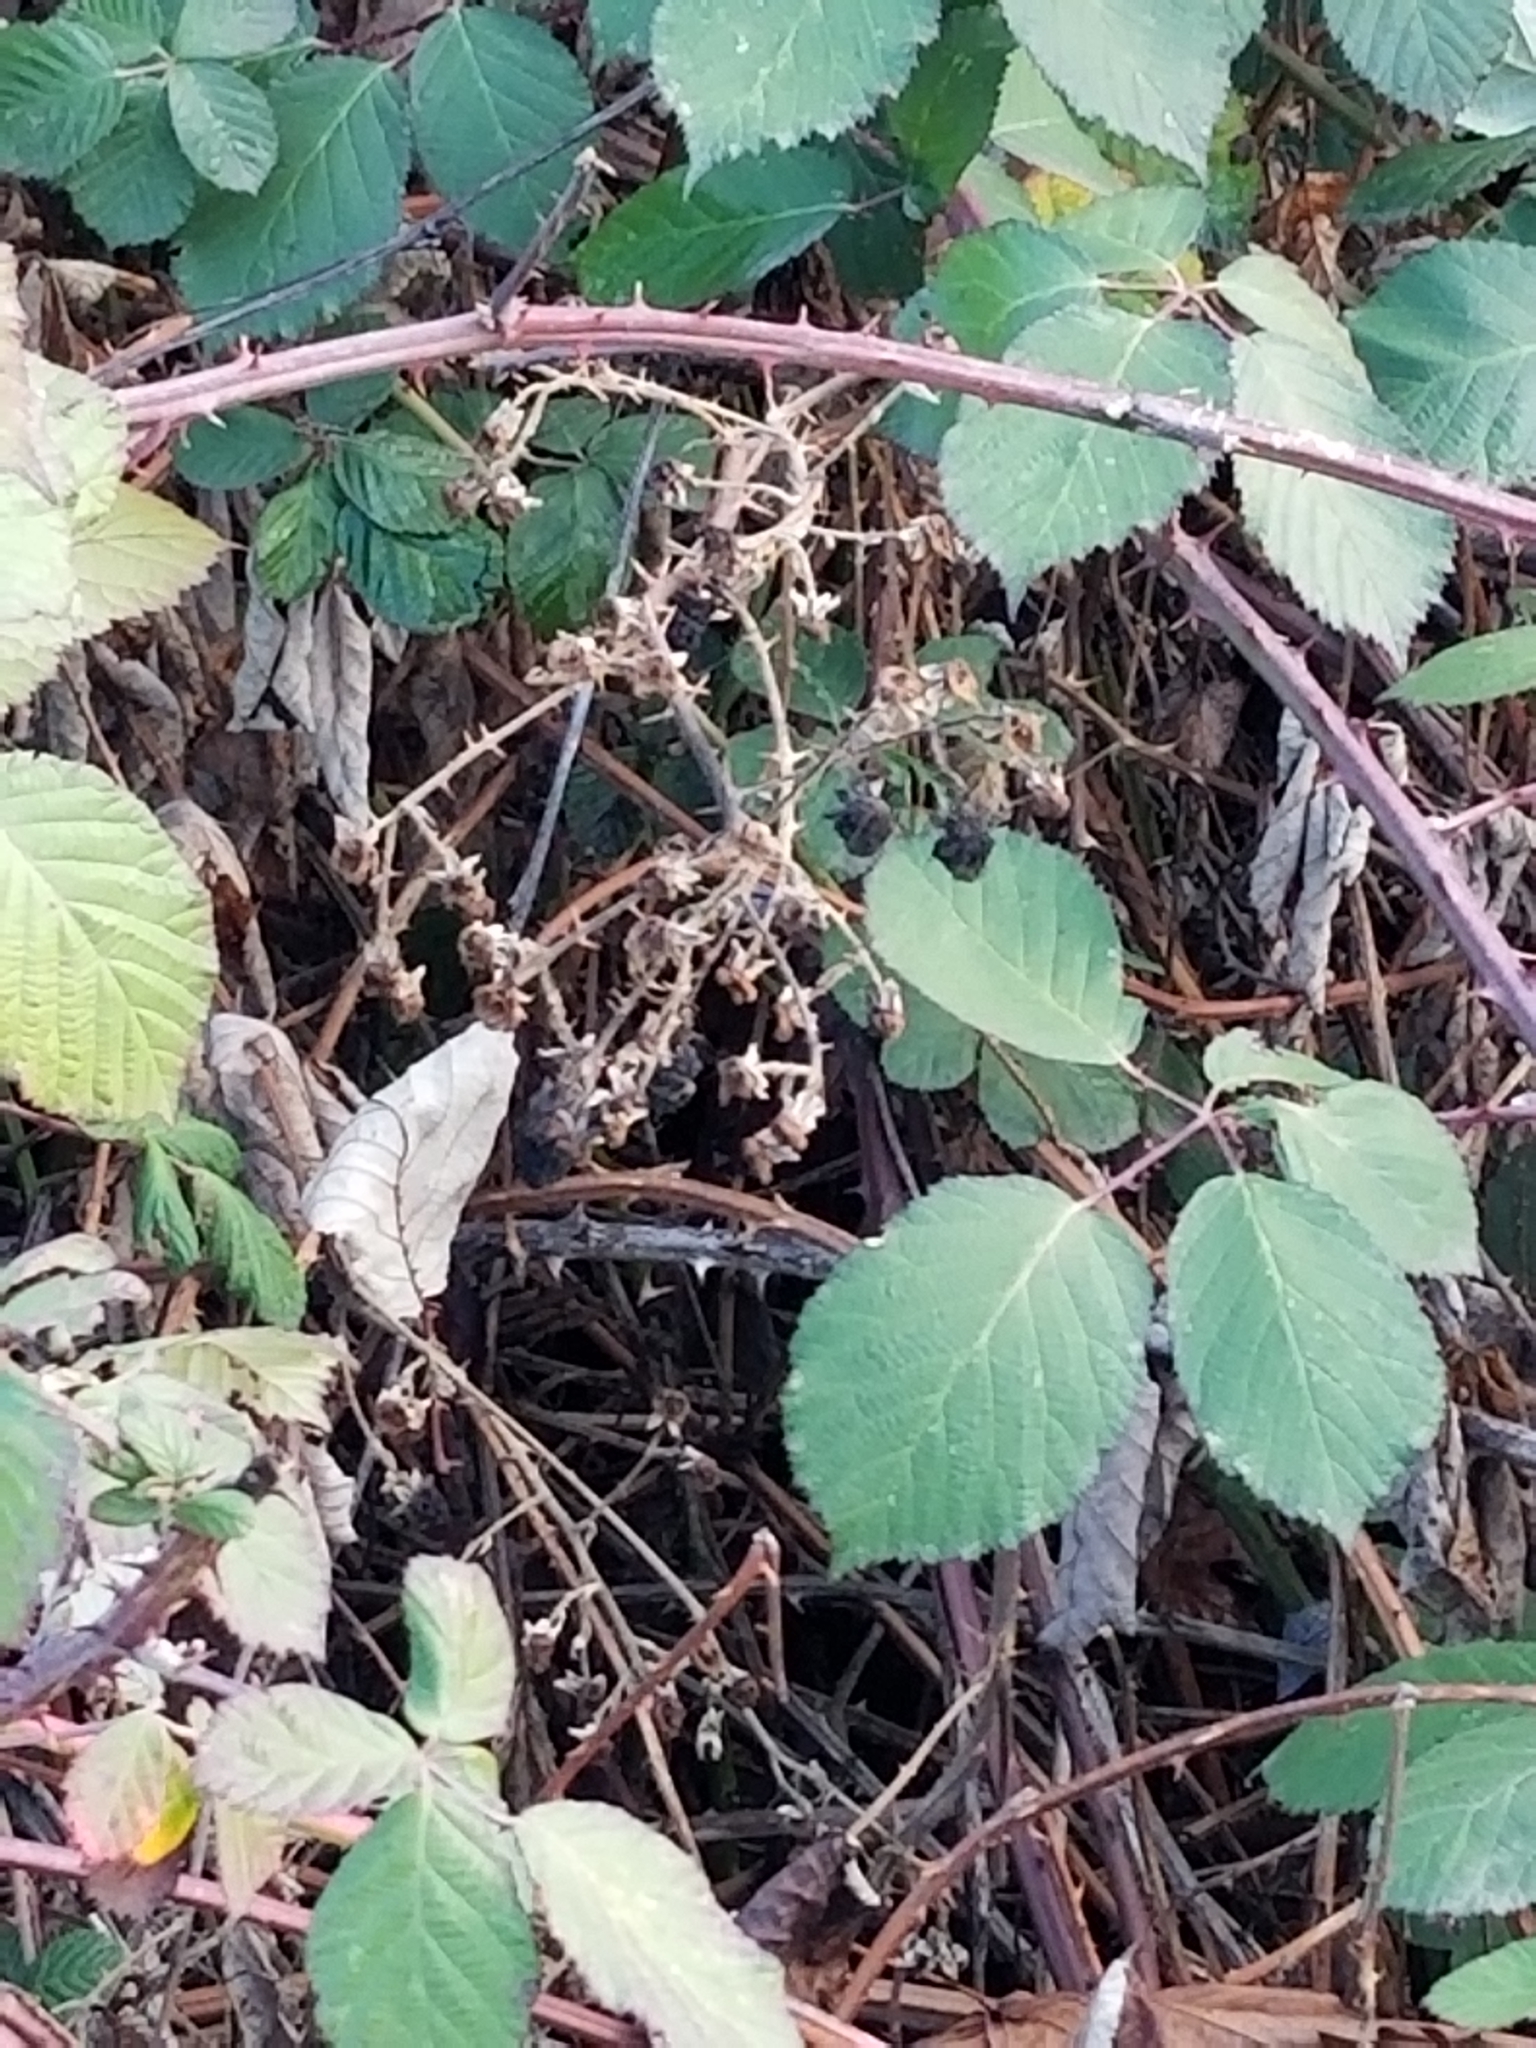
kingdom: Plantae
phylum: Tracheophyta
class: Magnoliopsida
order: Rosales
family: Rosaceae
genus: Rubus
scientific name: Rubus armeniacus
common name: Himalayan blackberry
